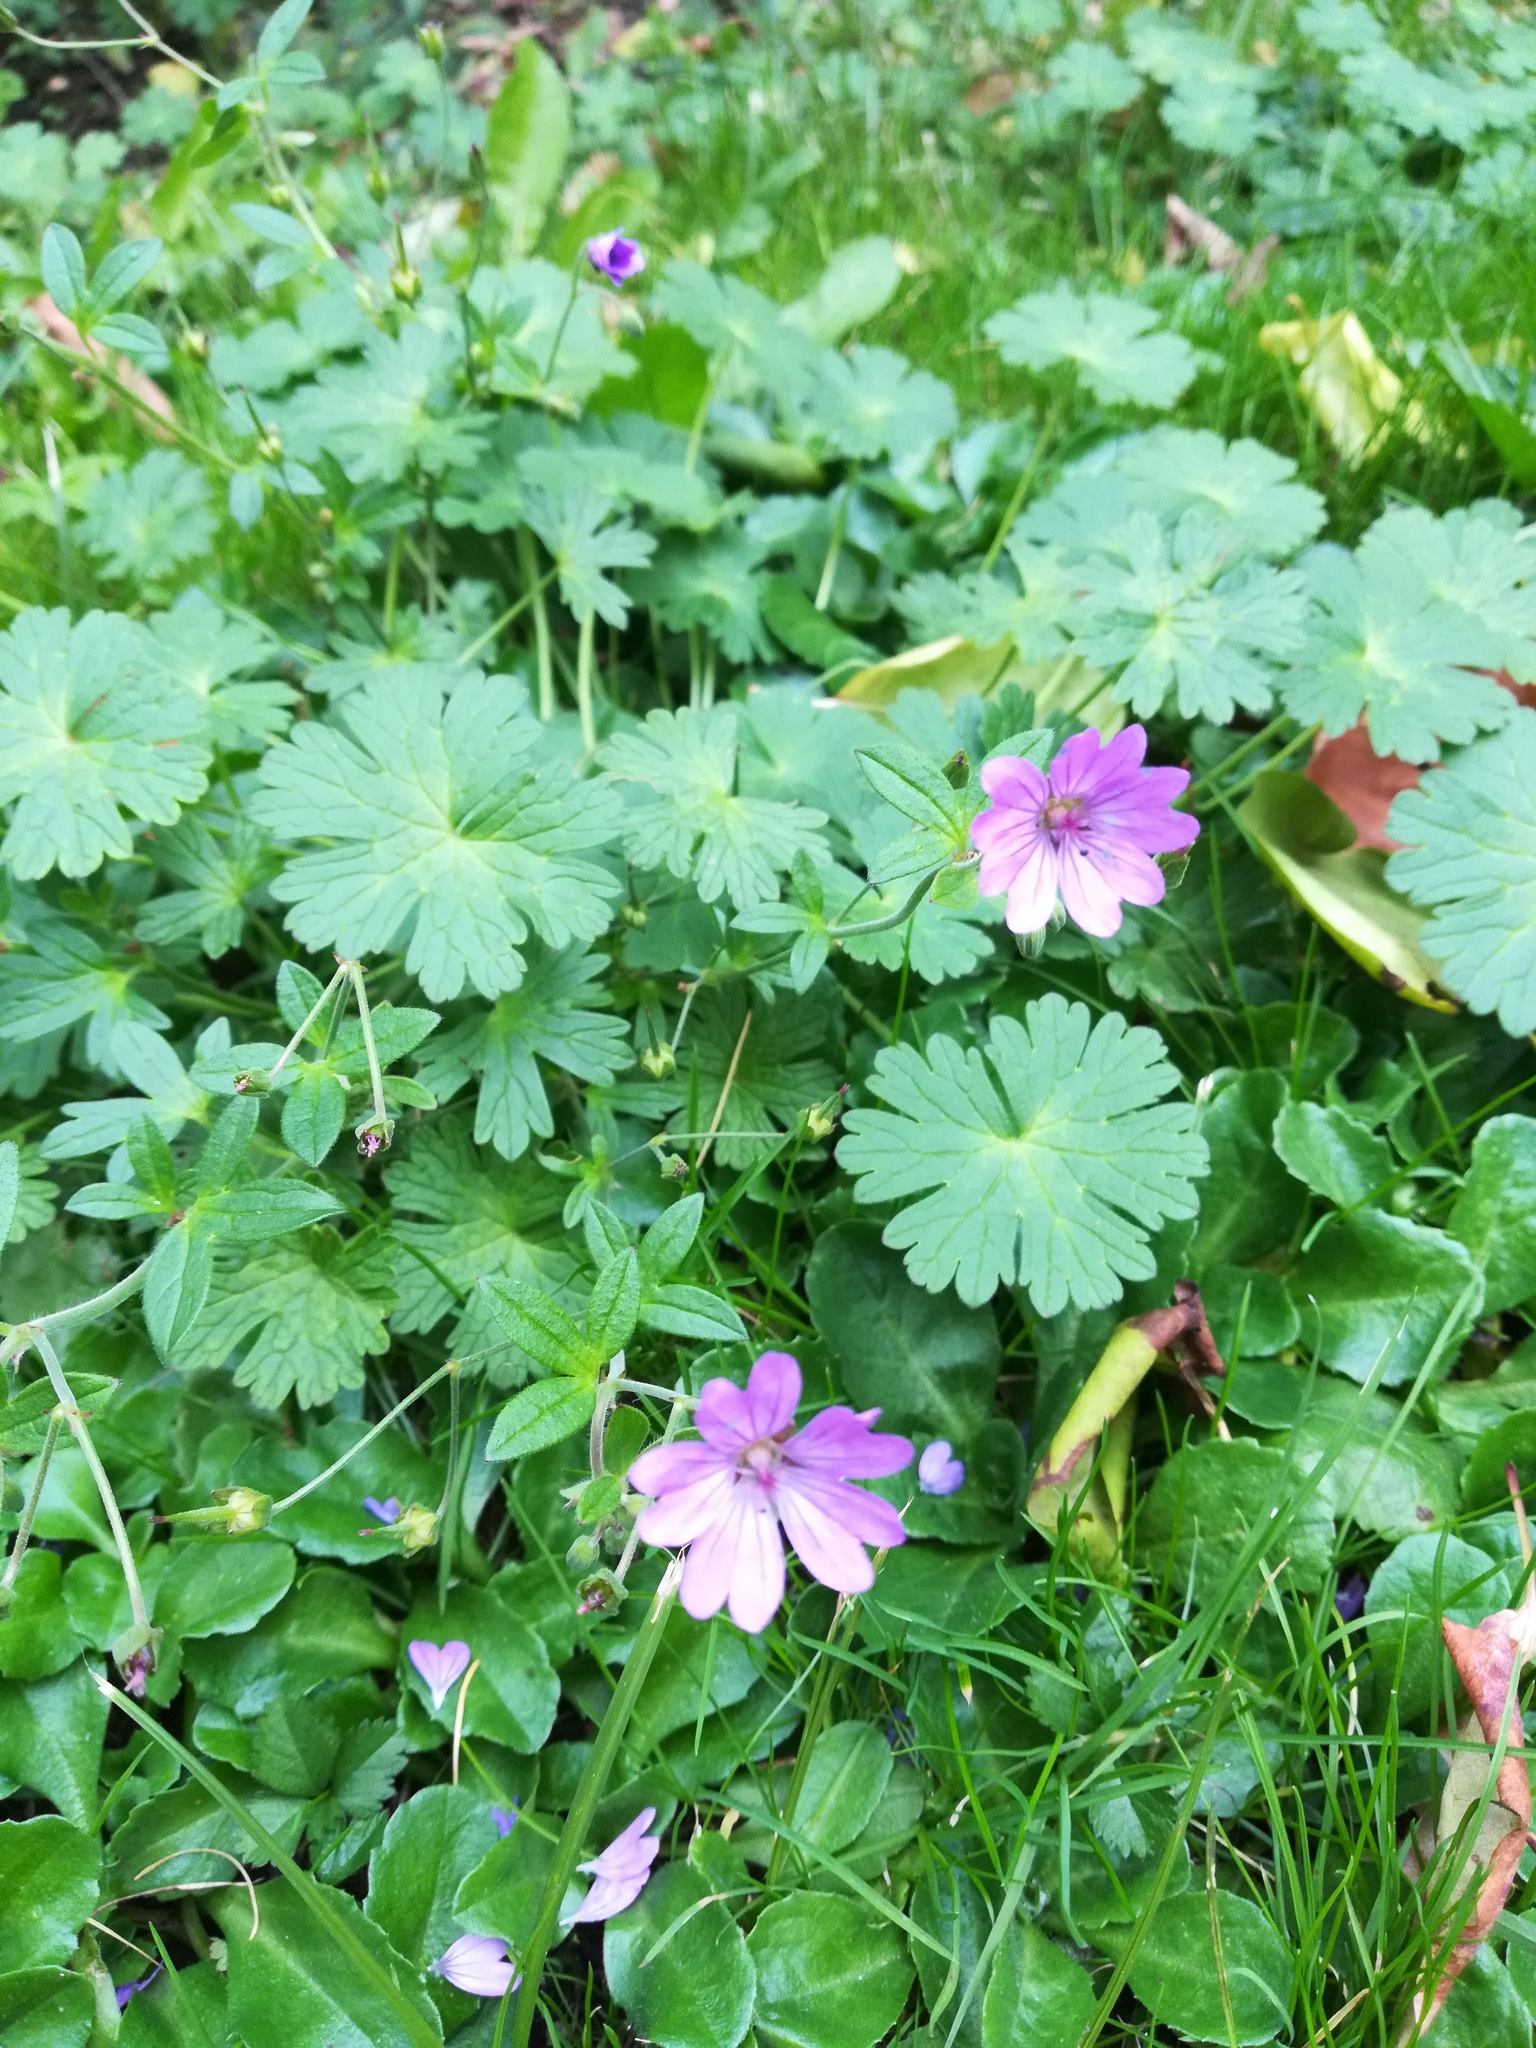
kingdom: Plantae
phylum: Tracheophyta
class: Magnoliopsida
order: Geraniales
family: Geraniaceae
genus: Geranium
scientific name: Geranium pyrenaicum
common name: Hedgerow crane's-bill
